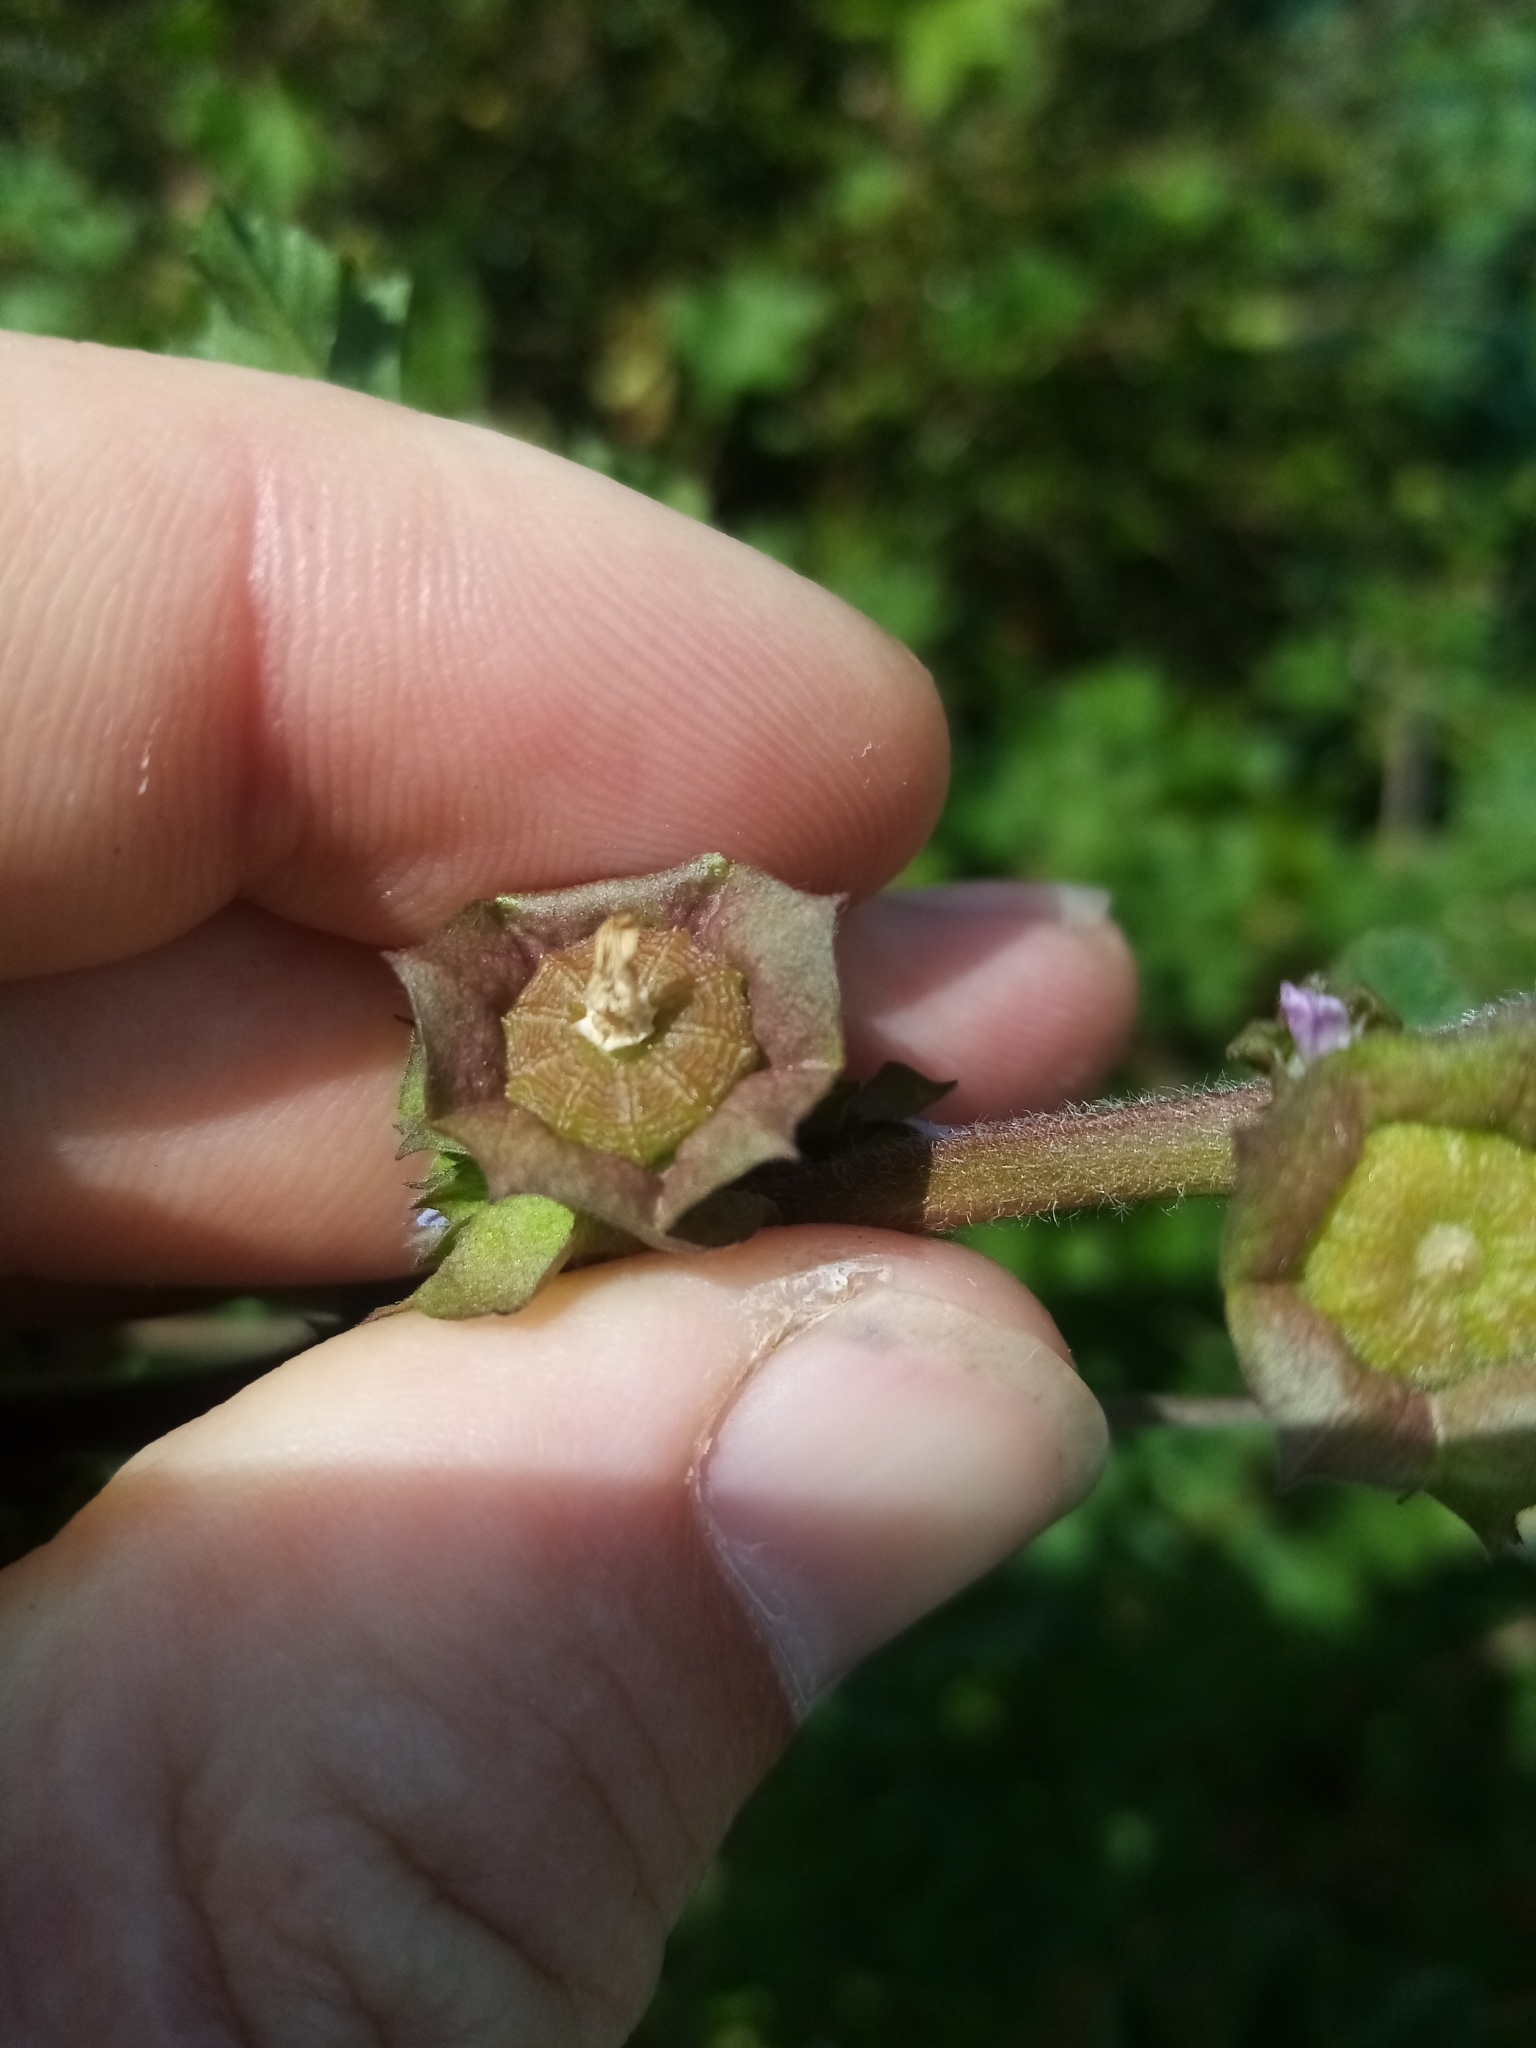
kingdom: Plantae
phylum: Tracheophyta
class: Magnoliopsida
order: Malvales
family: Malvaceae
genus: Malva
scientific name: Malva parviflora
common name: Least mallow
